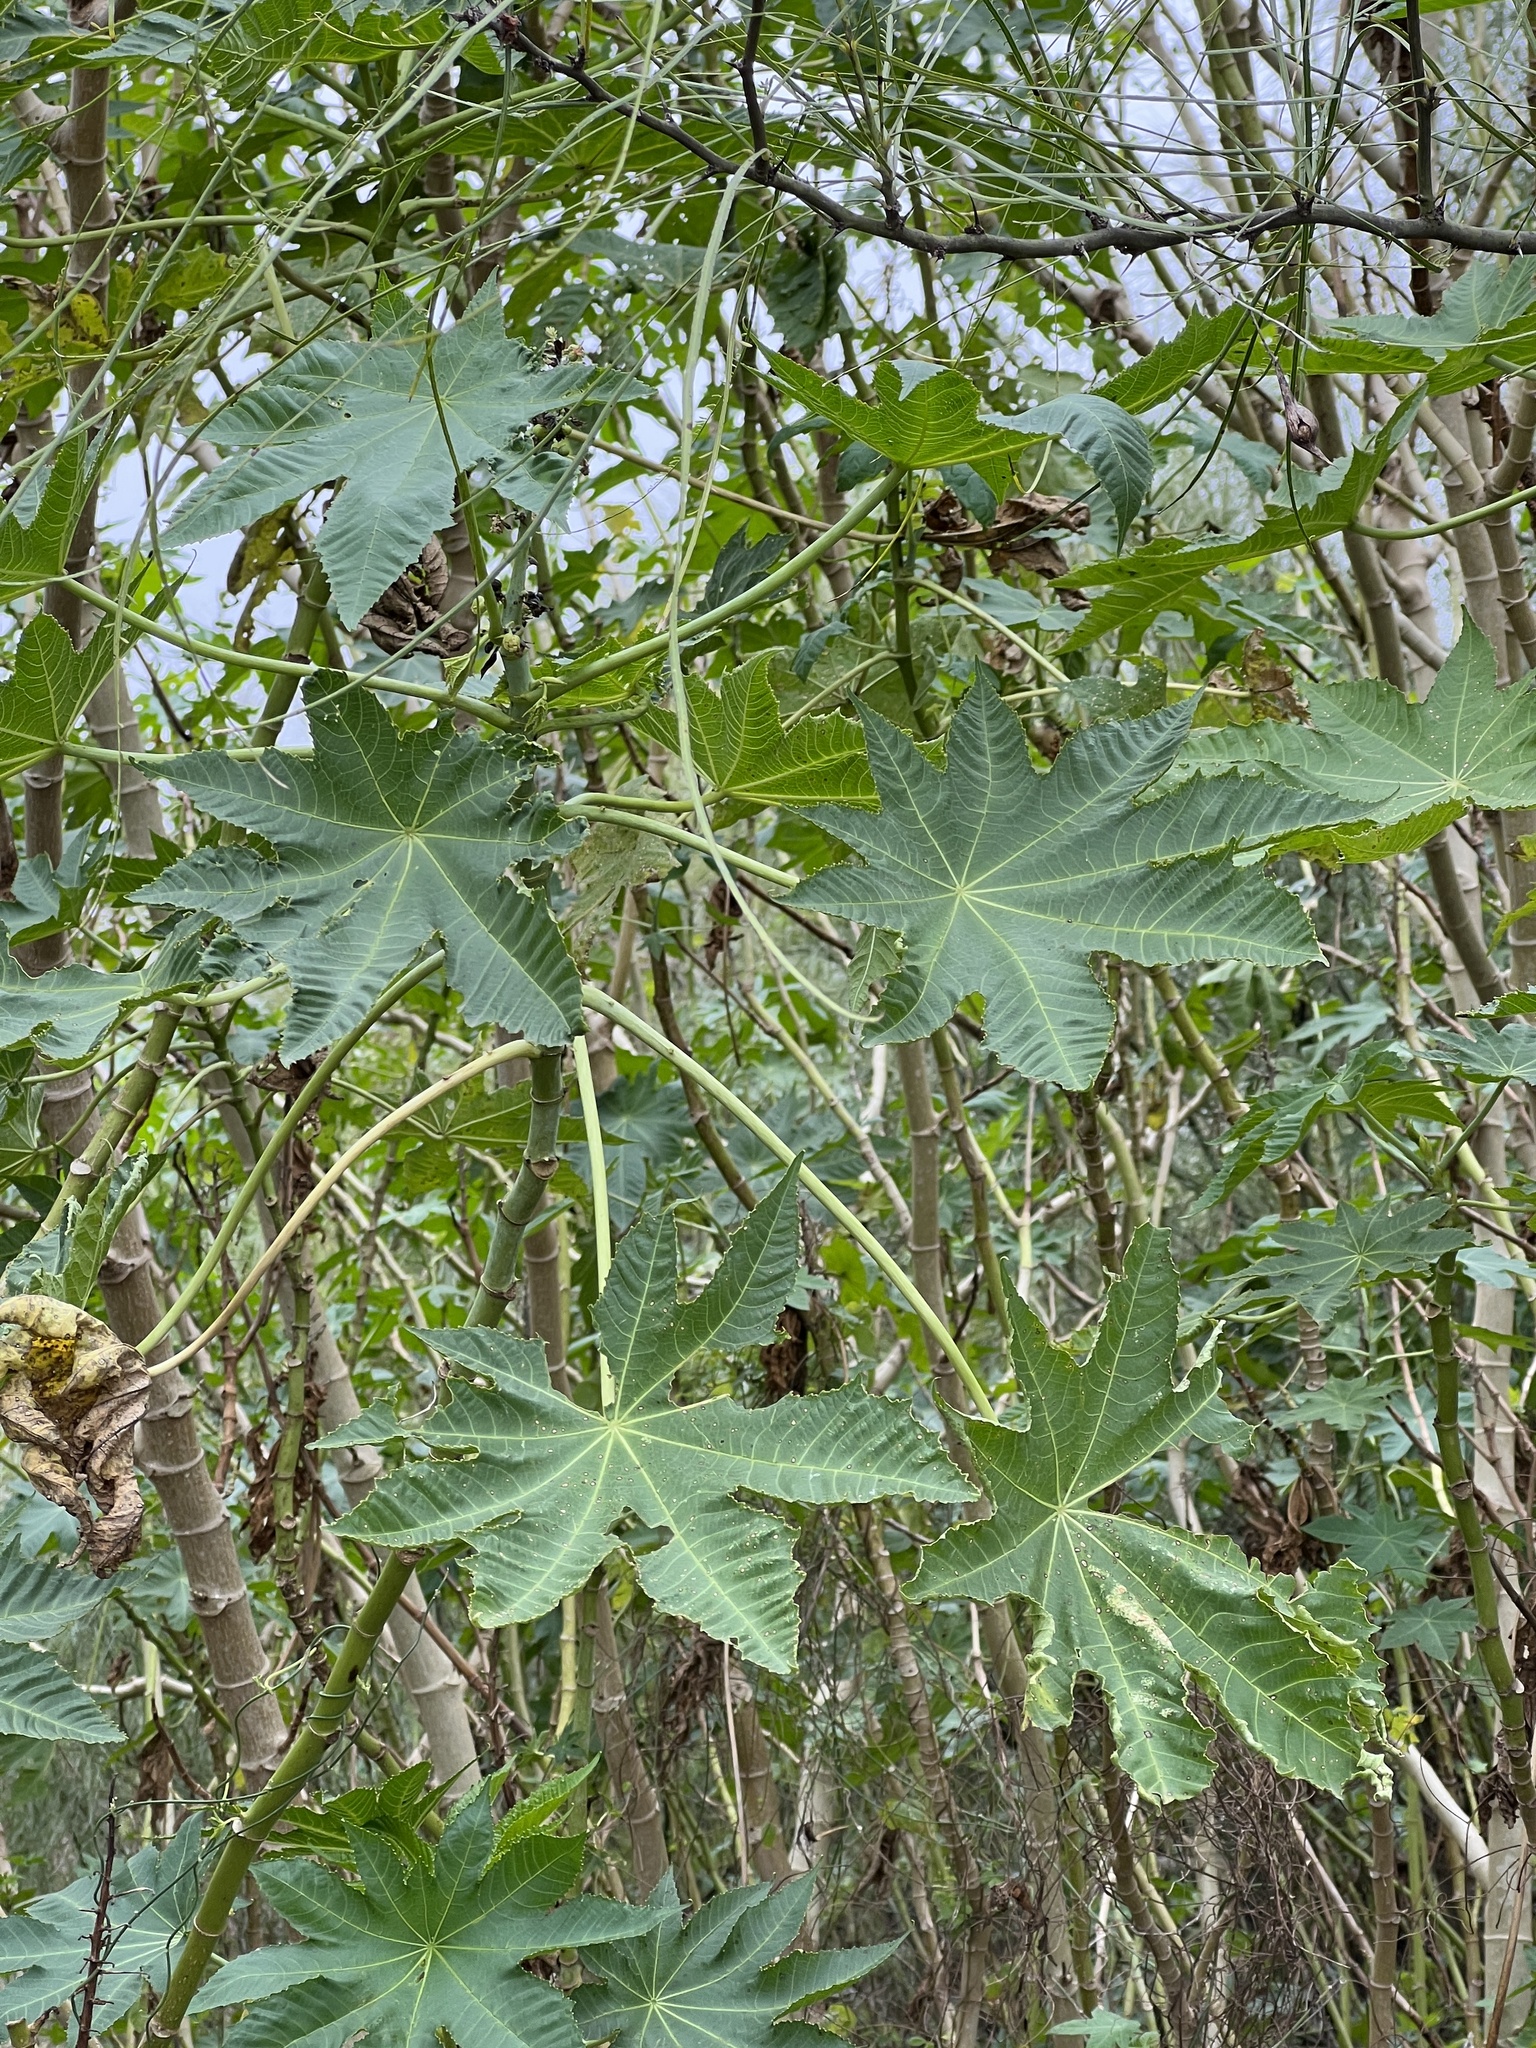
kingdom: Plantae
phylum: Tracheophyta
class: Magnoliopsida
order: Malpighiales
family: Euphorbiaceae
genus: Ricinus
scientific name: Ricinus communis
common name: Castor-oil-plant
